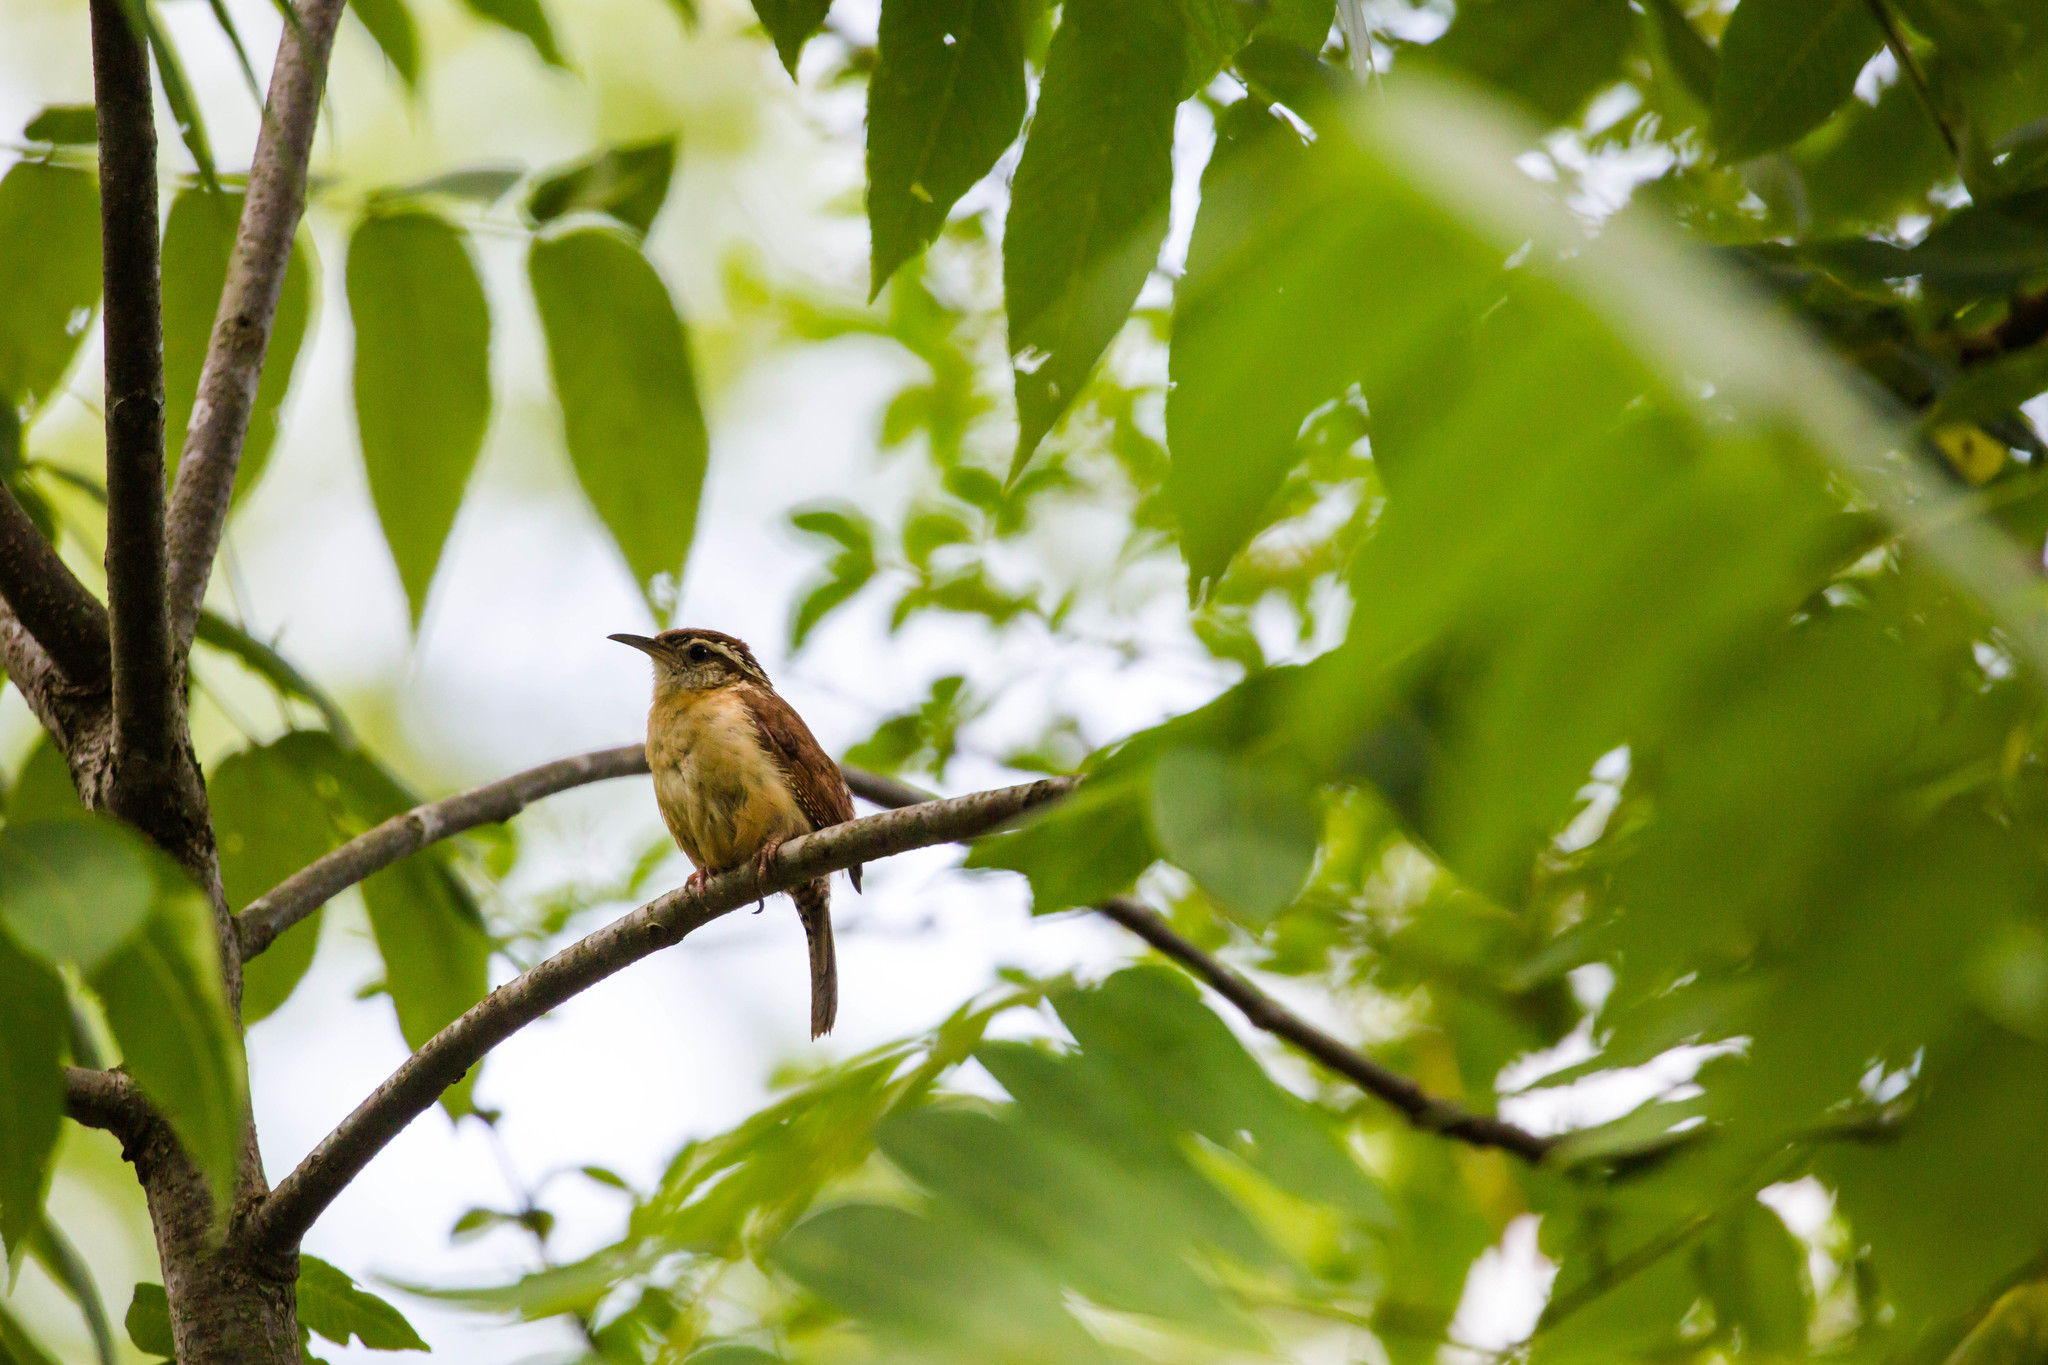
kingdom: Animalia
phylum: Chordata
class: Aves
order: Passeriformes
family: Troglodytidae
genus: Thryothorus
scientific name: Thryothorus ludovicianus
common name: Carolina wren
